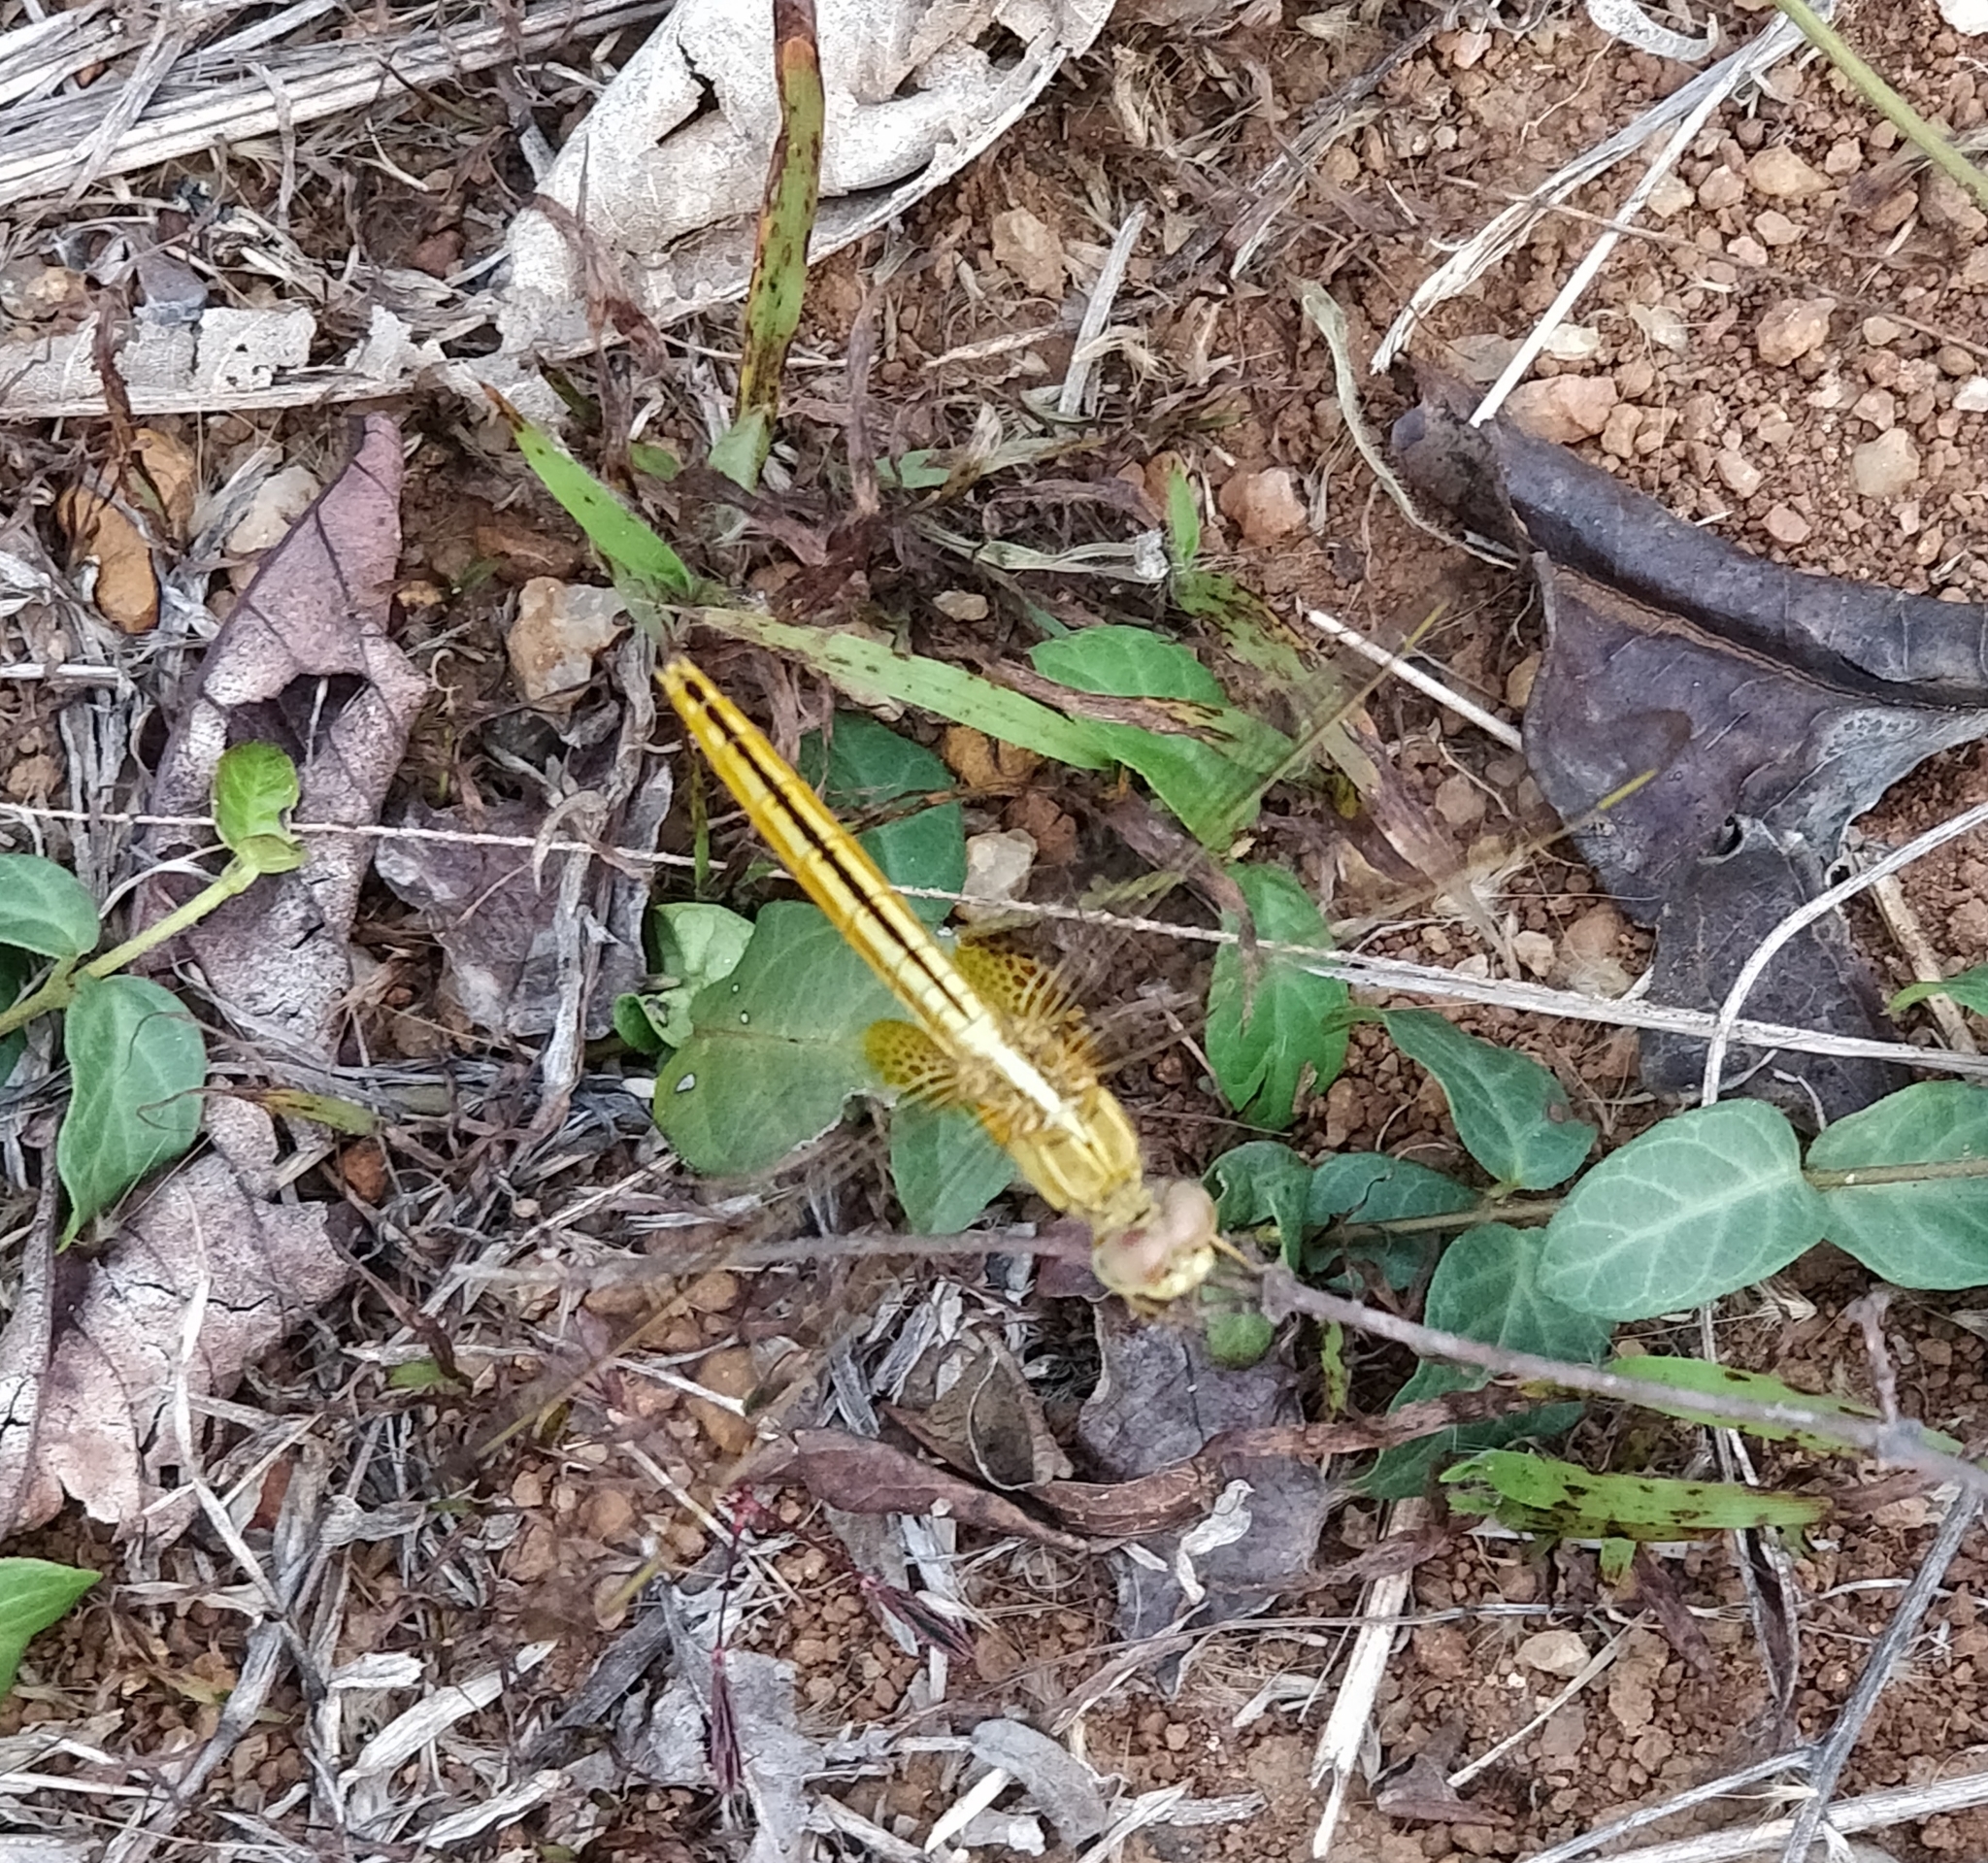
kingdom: Animalia
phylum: Arthropoda
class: Insecta
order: Odonata
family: Libellulidae
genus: Crocothemis
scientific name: Crocothemis servilia
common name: Scarlet skimmer
